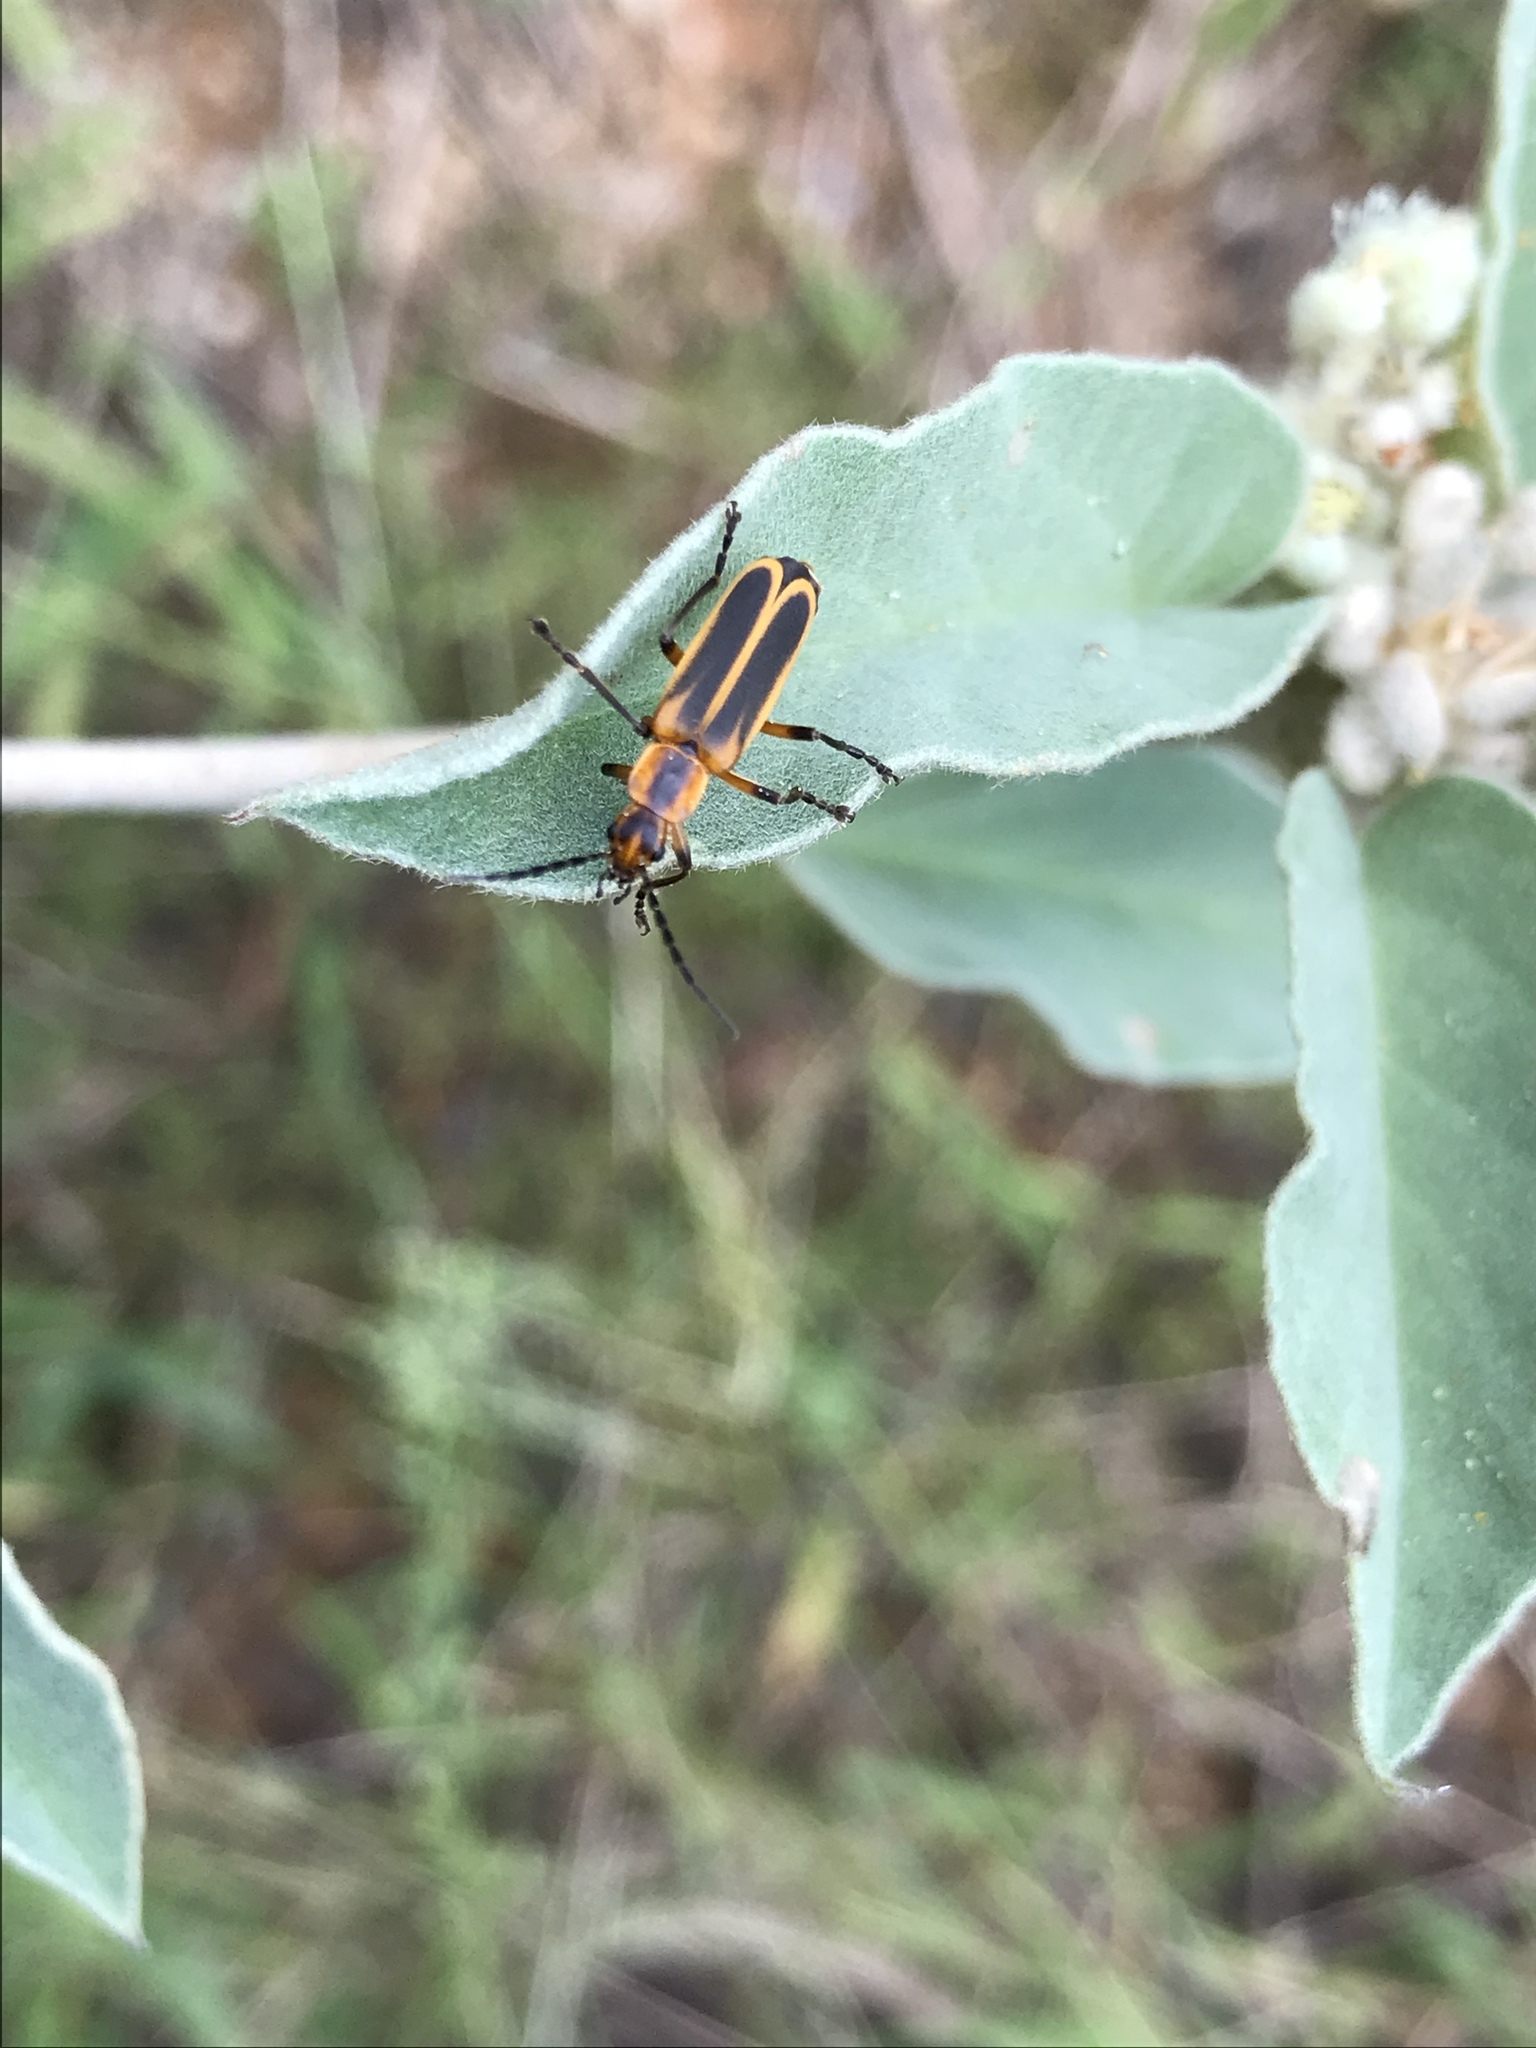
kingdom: Animalia
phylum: Arthropoda
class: Insecta
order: Coleoptera
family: Cantharidae
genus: Chauliognathus
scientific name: Chauliognathus marginatus
